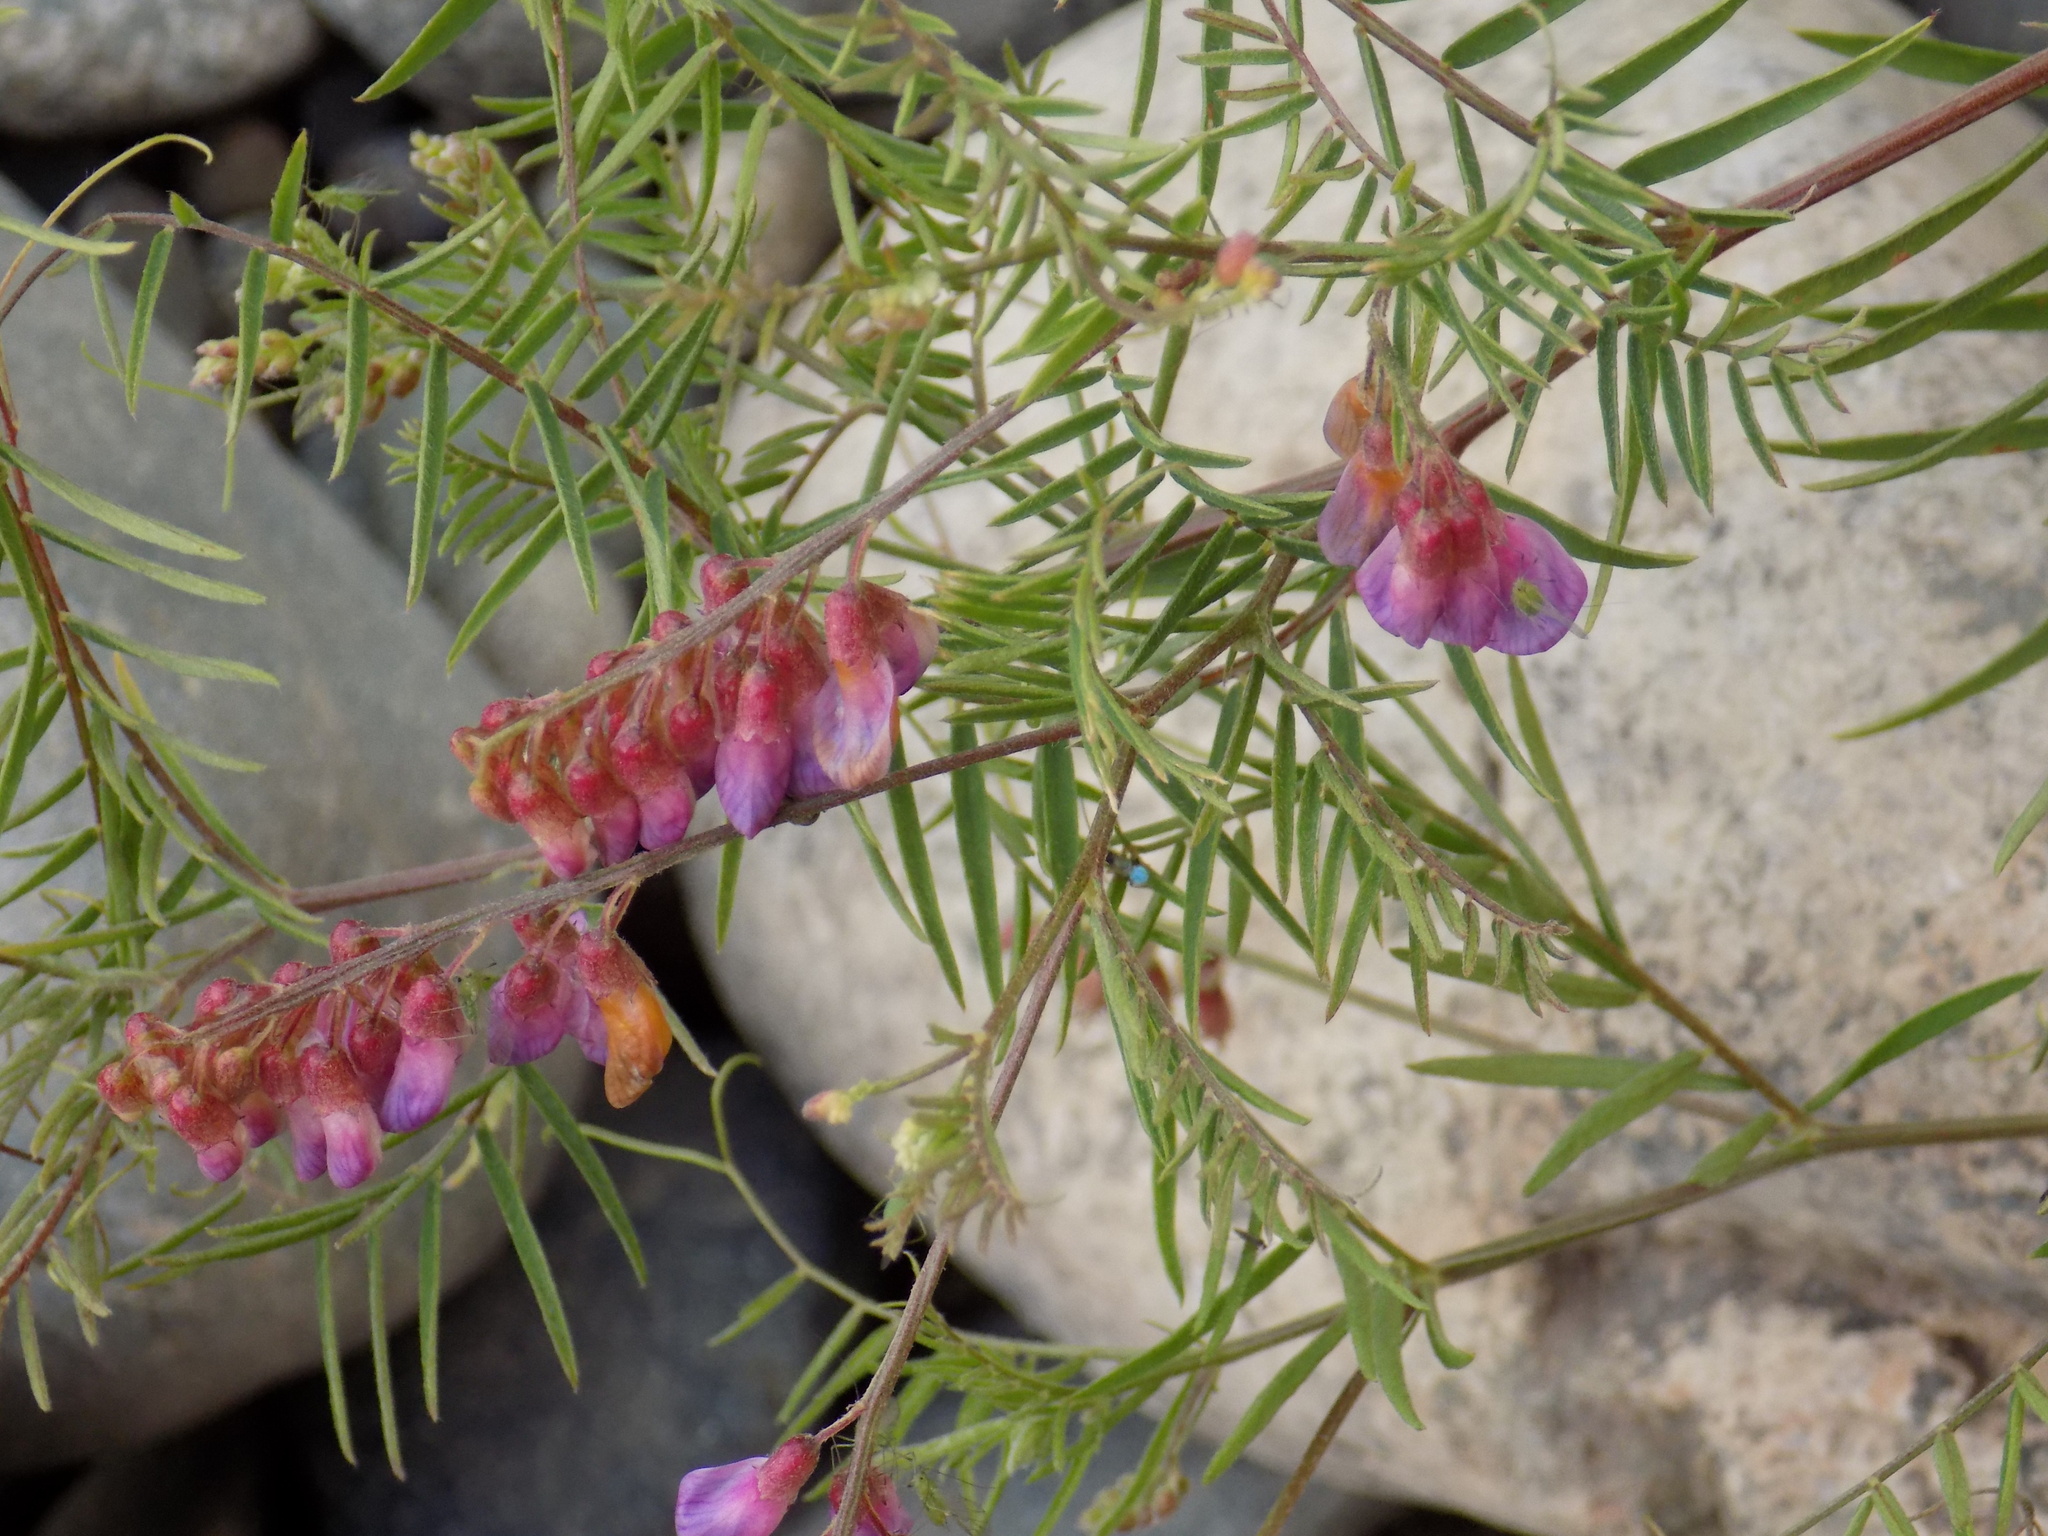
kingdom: Plantae
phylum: Tracheophyta
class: Magnoliopsida
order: Fabales
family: Fabaceae
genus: Vicia
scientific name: Vicia megalotropis
